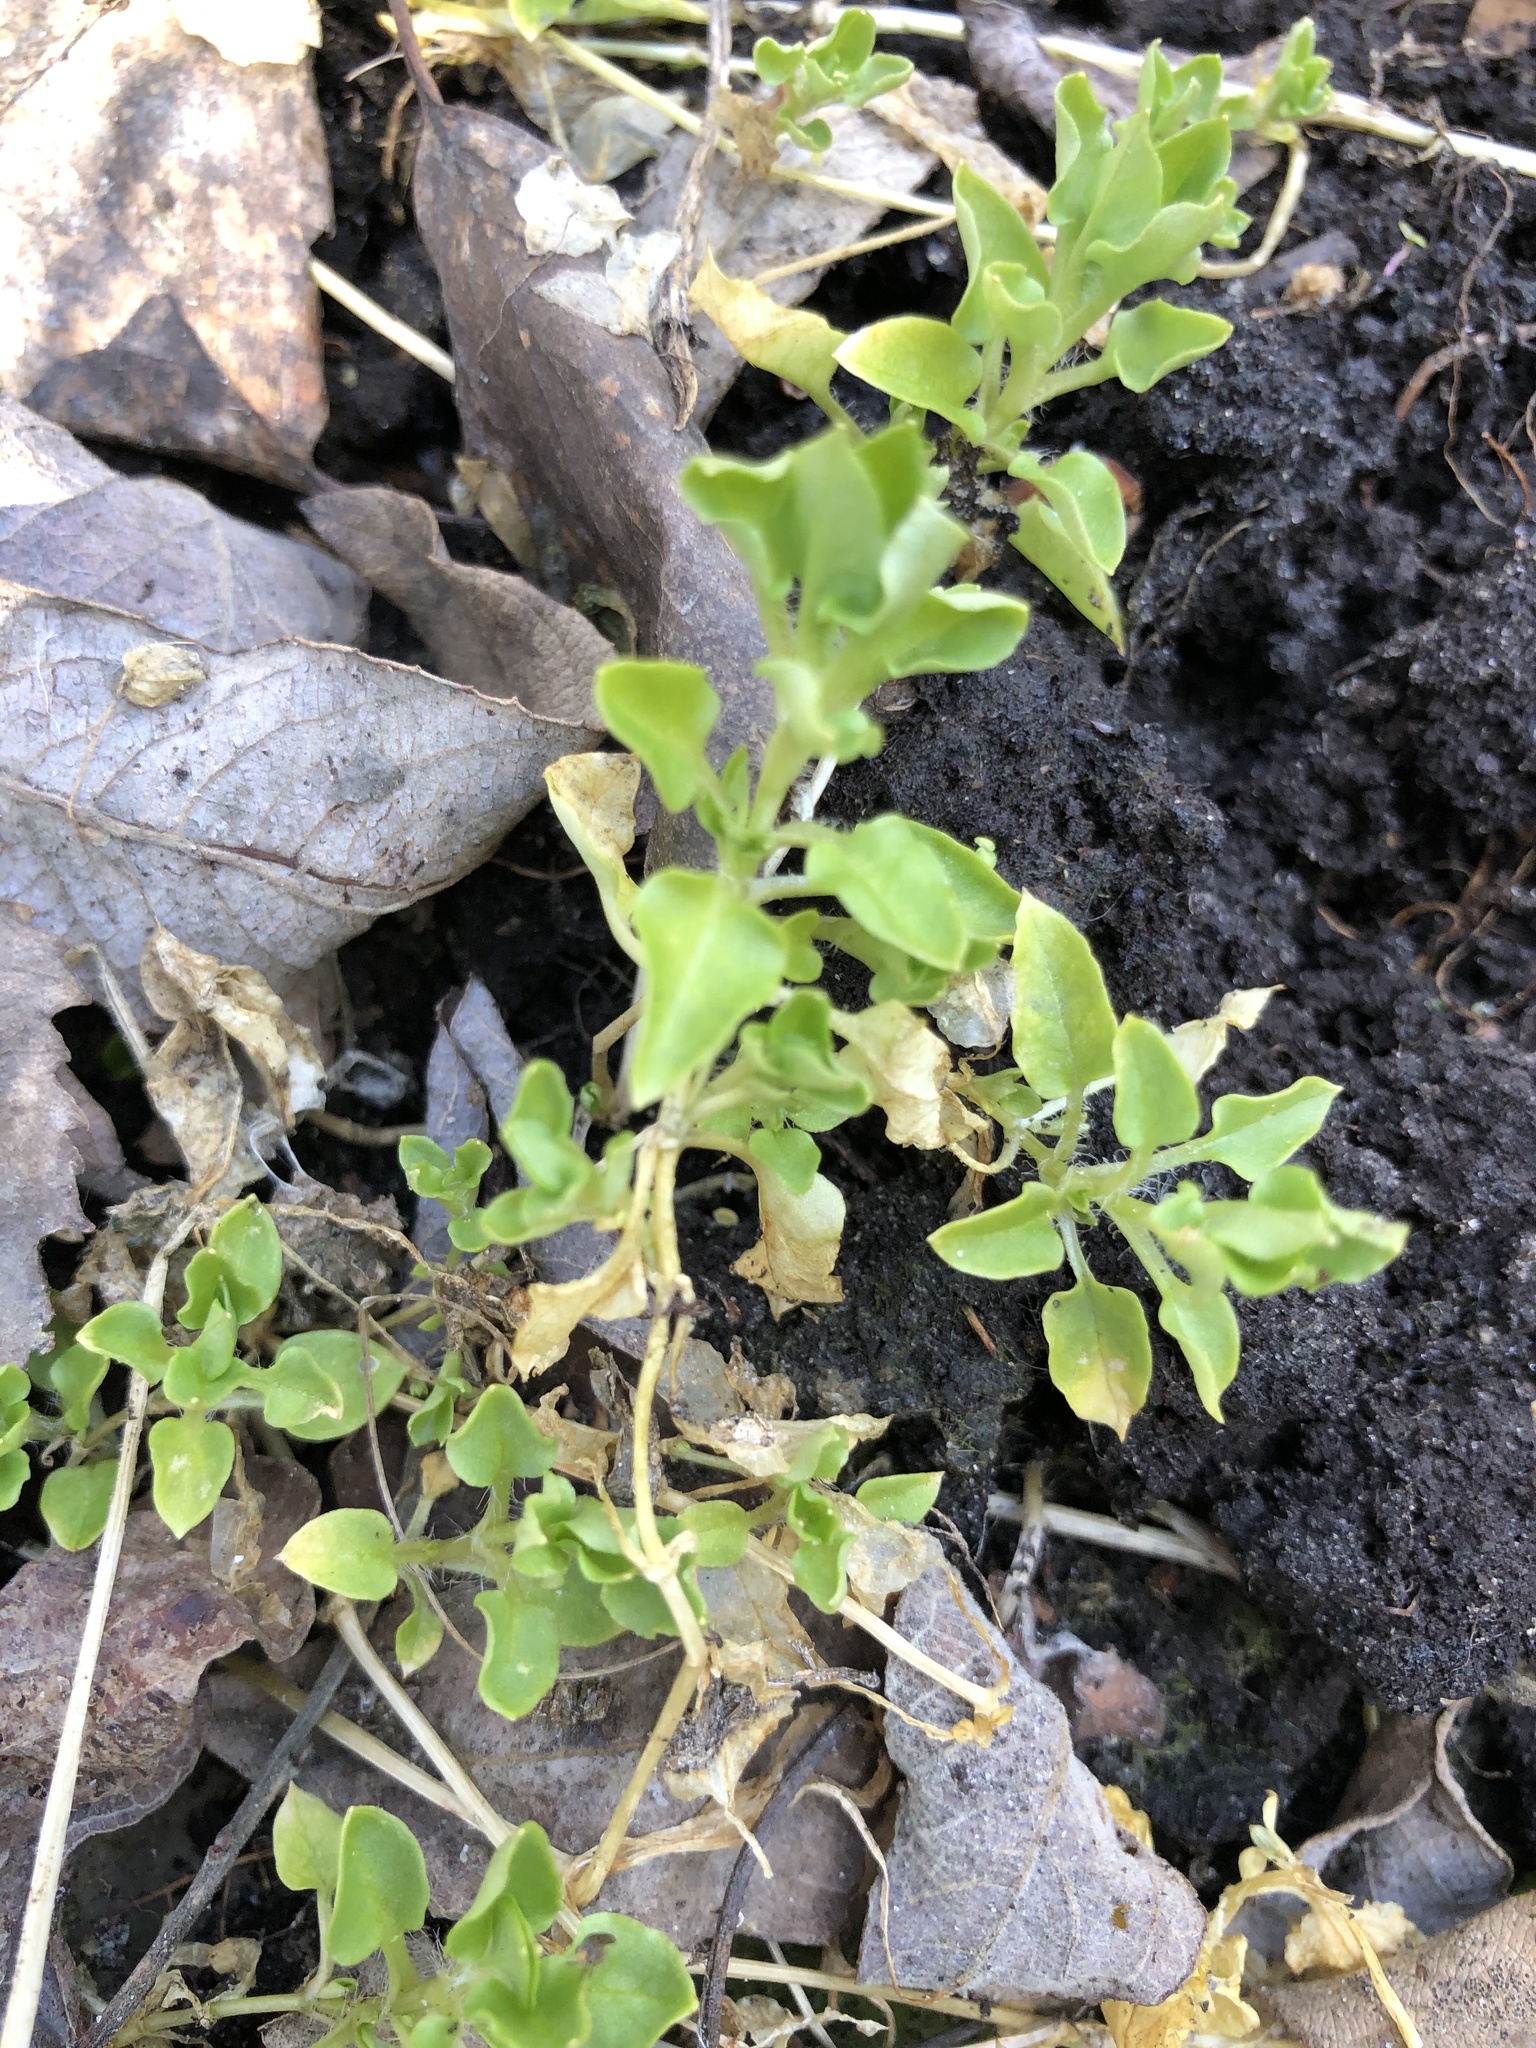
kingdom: Plantae
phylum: Tracheophyta
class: Magnoliopsida
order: Caryophyllales
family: Caryophyllaceae
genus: Stellaria
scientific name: Stellaria media
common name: Common chickweed
